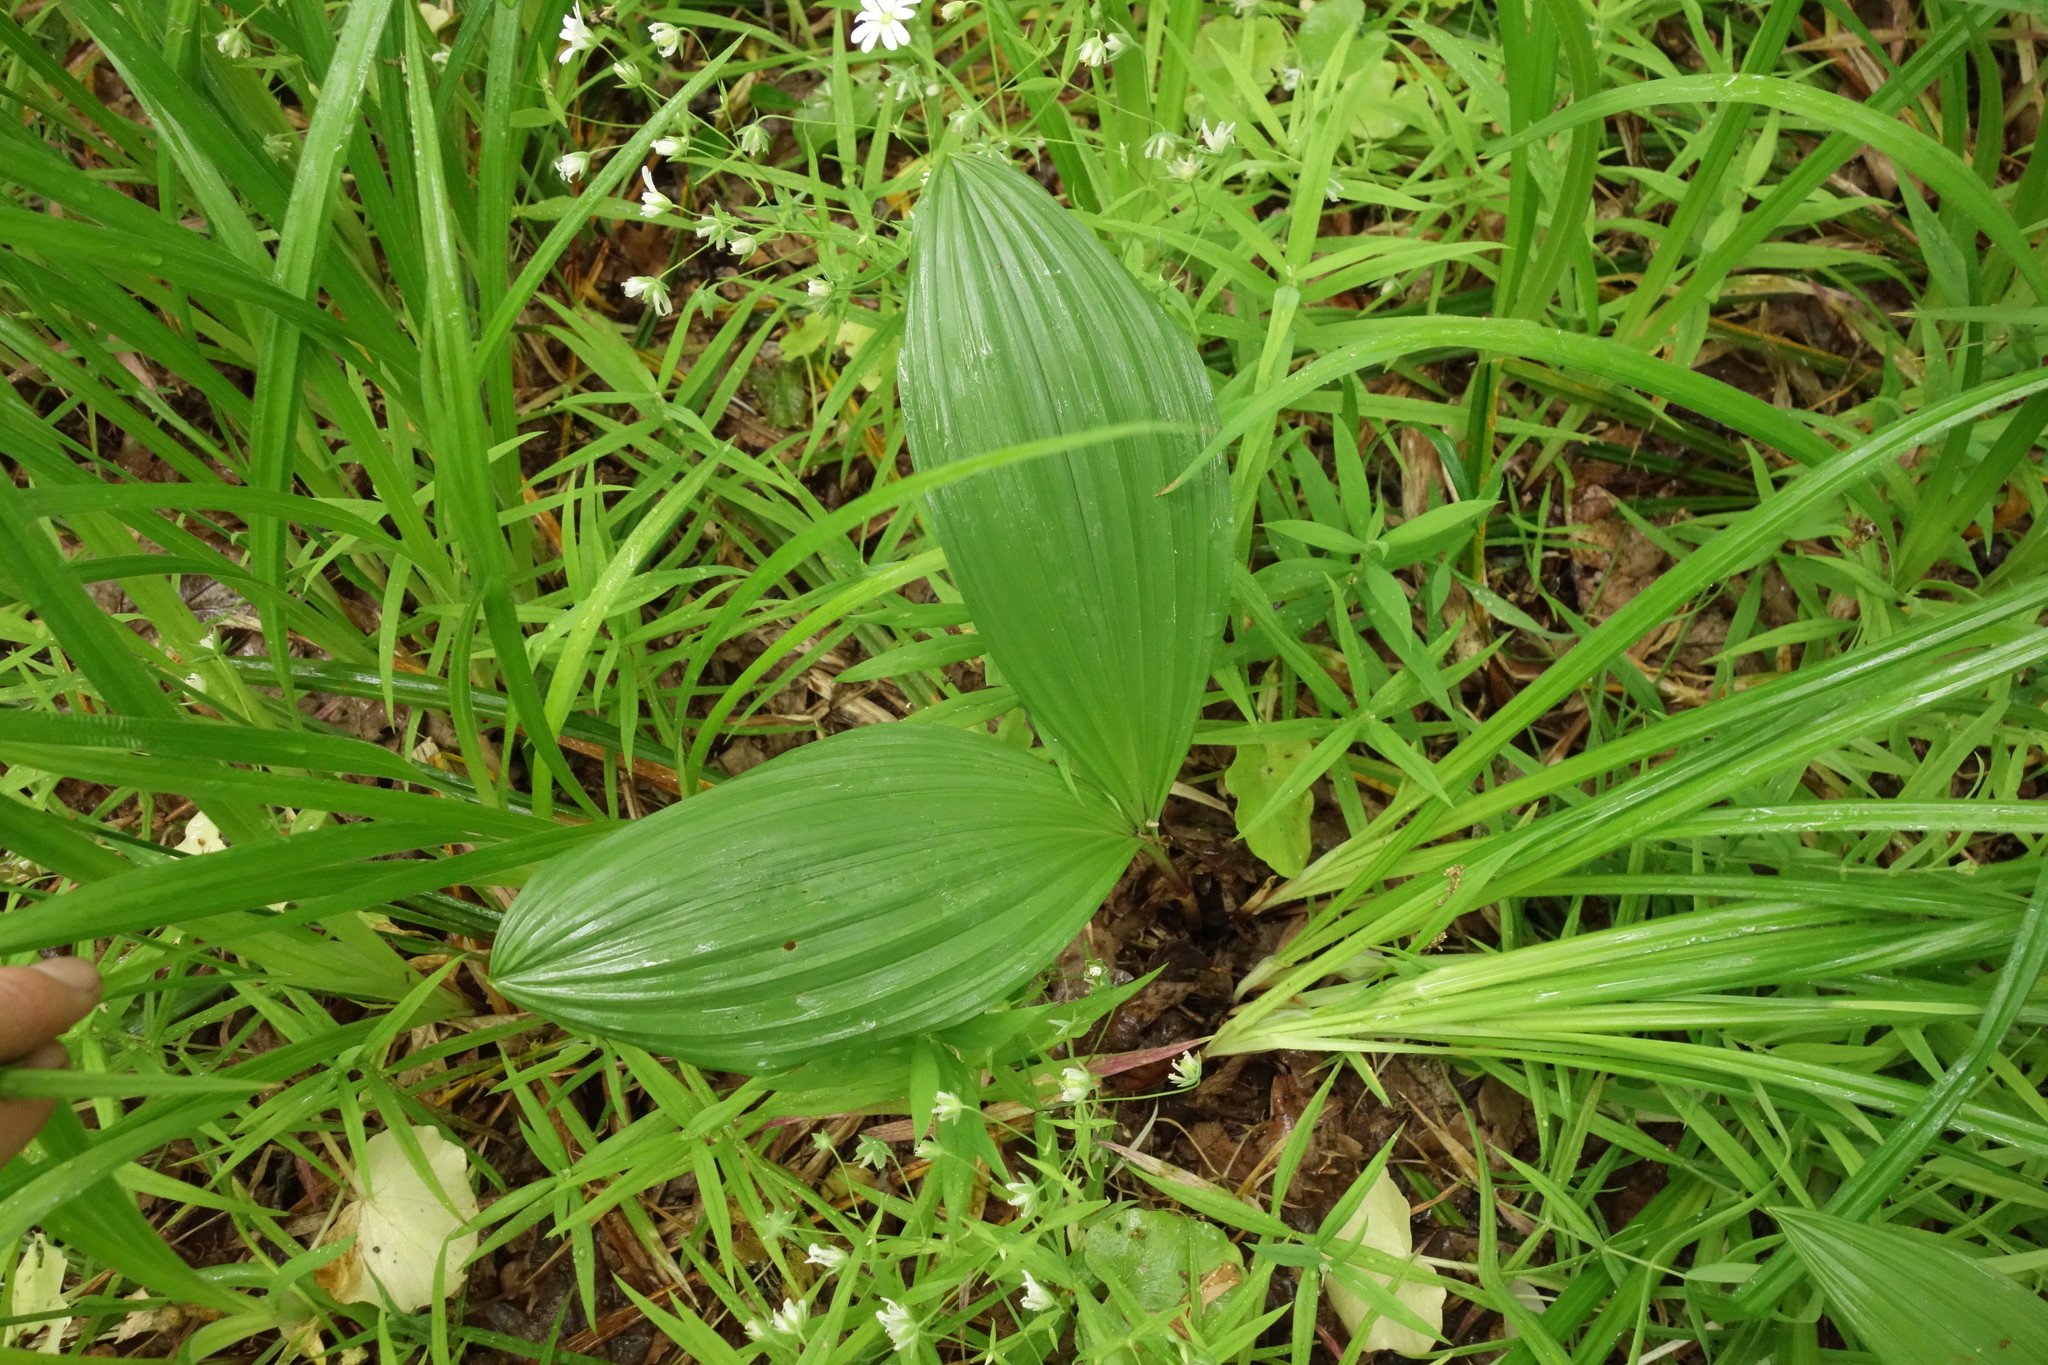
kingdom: Plantae
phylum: Tracheophyta
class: Liliopsida
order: Liliales
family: Melanthiaceae
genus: Veratrum
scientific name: Veratrum nigrum
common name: Black veratrum
